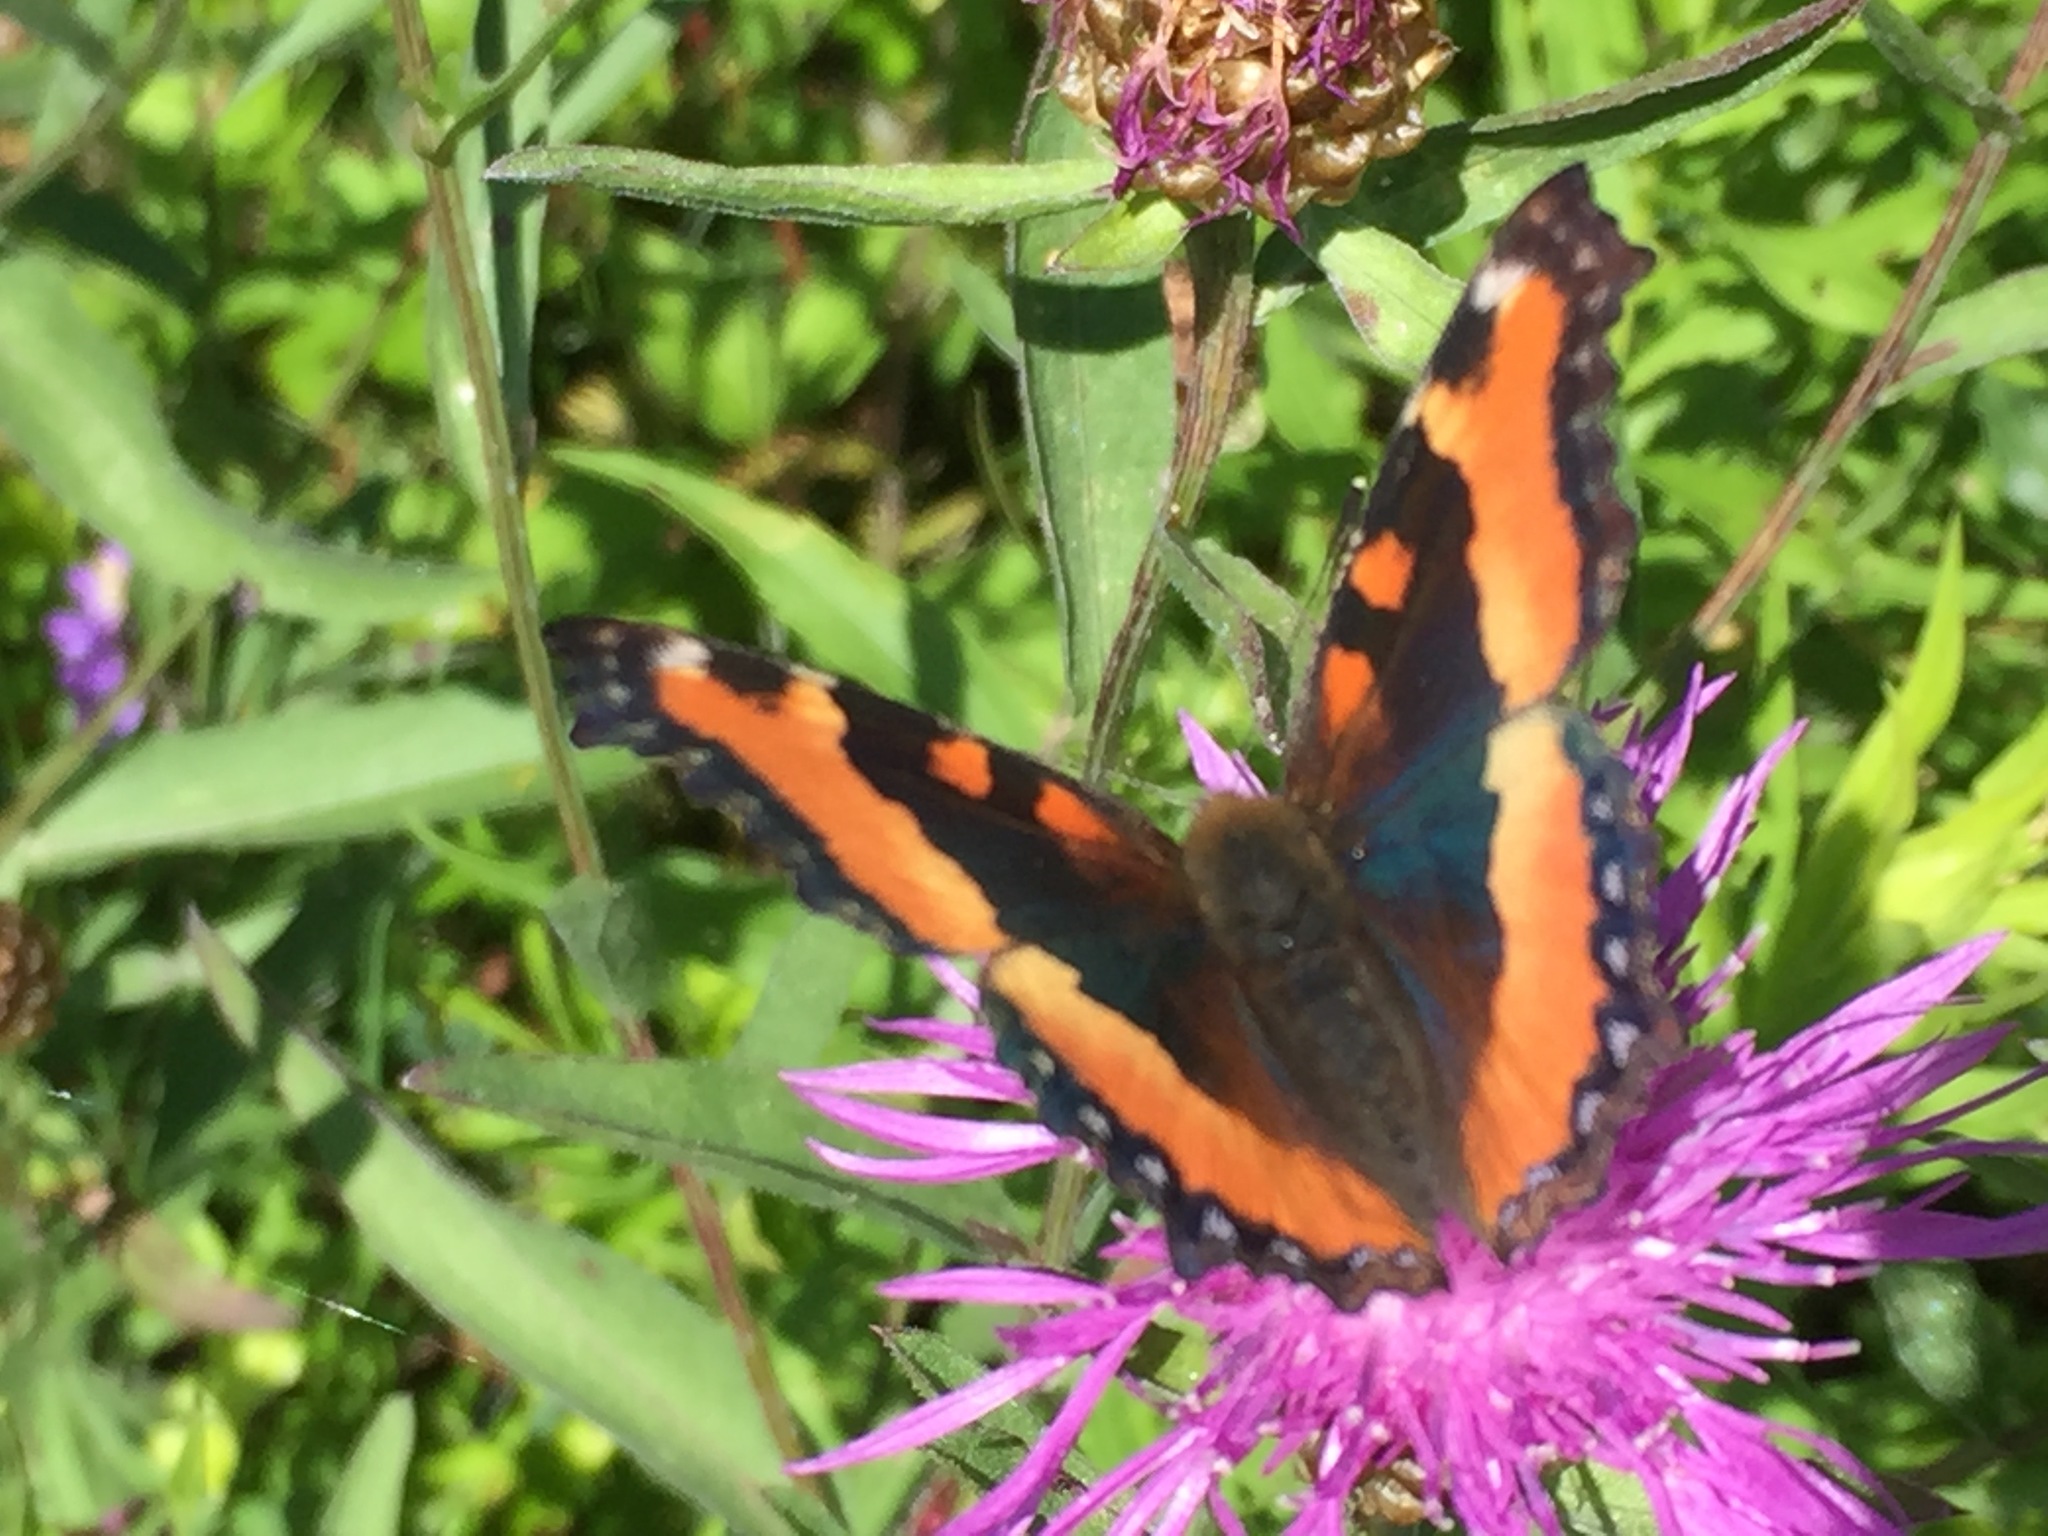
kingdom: Animalia
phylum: Arthropoda
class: Insecta
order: Lepidoptera
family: Nymphalidae
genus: Aglais
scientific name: Aglais milberti
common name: Milbert's tortoiseshell
